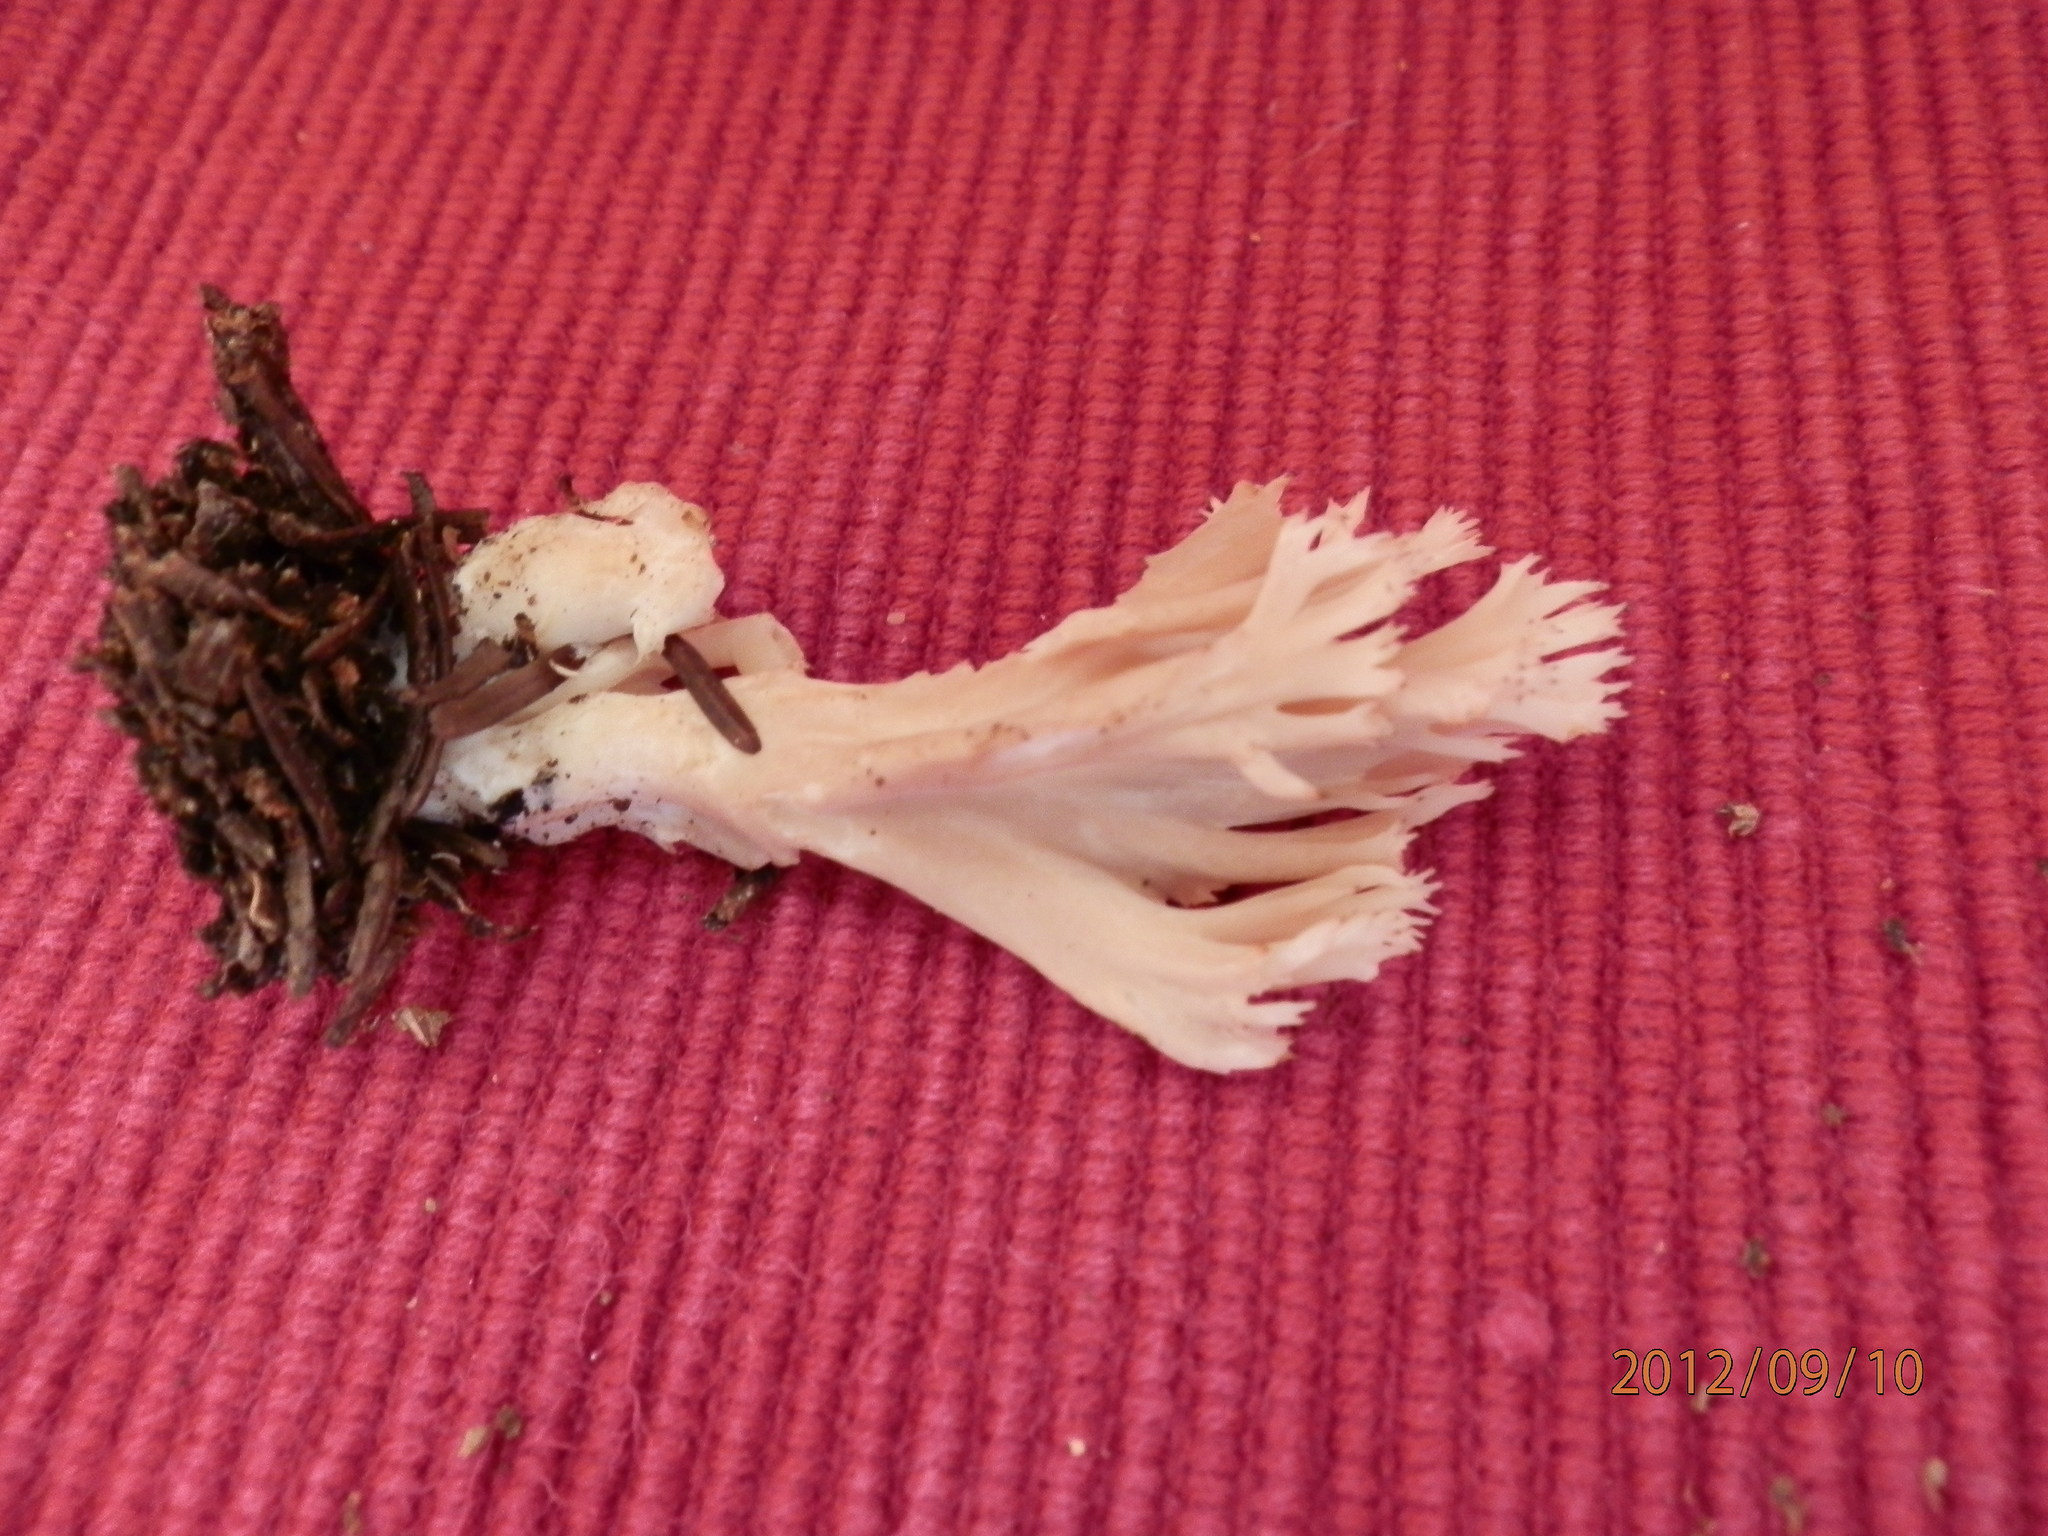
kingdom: Fungi
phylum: Basidiomycota
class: Agaricomycetes
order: Cantharellales
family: Hydnaceae
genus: Clavulina
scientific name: Clavulina coralloides
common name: Crested coral
